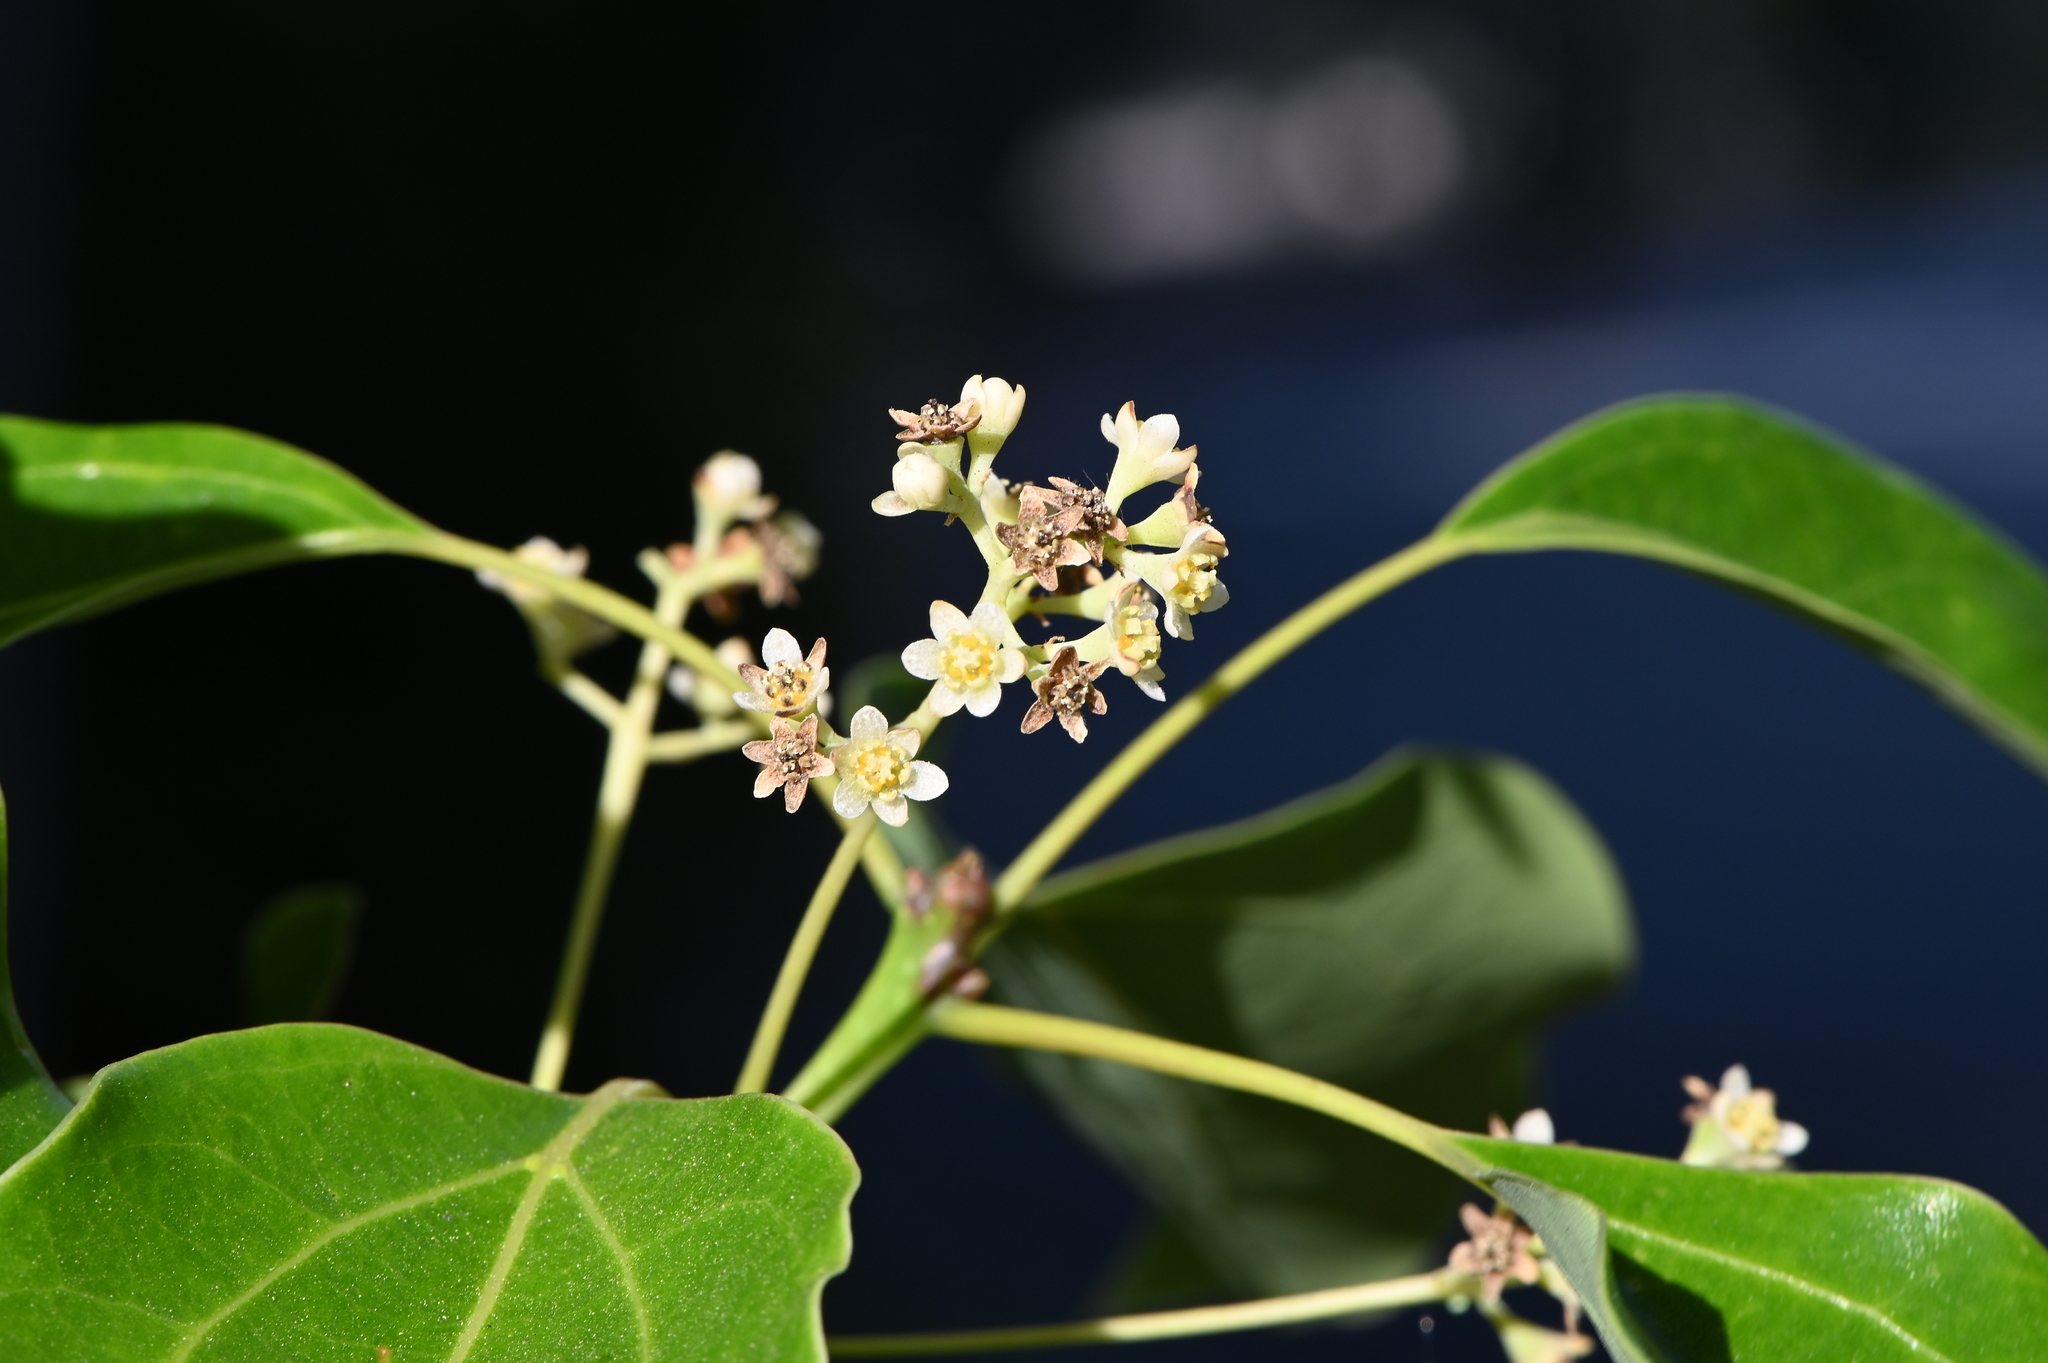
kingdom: Plantae
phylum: Tracheophyta
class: Magnoliopsida
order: Laurales
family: Lauraceae
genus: Cinnamomum
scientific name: Cinnamomum camphora
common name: Camphortree
